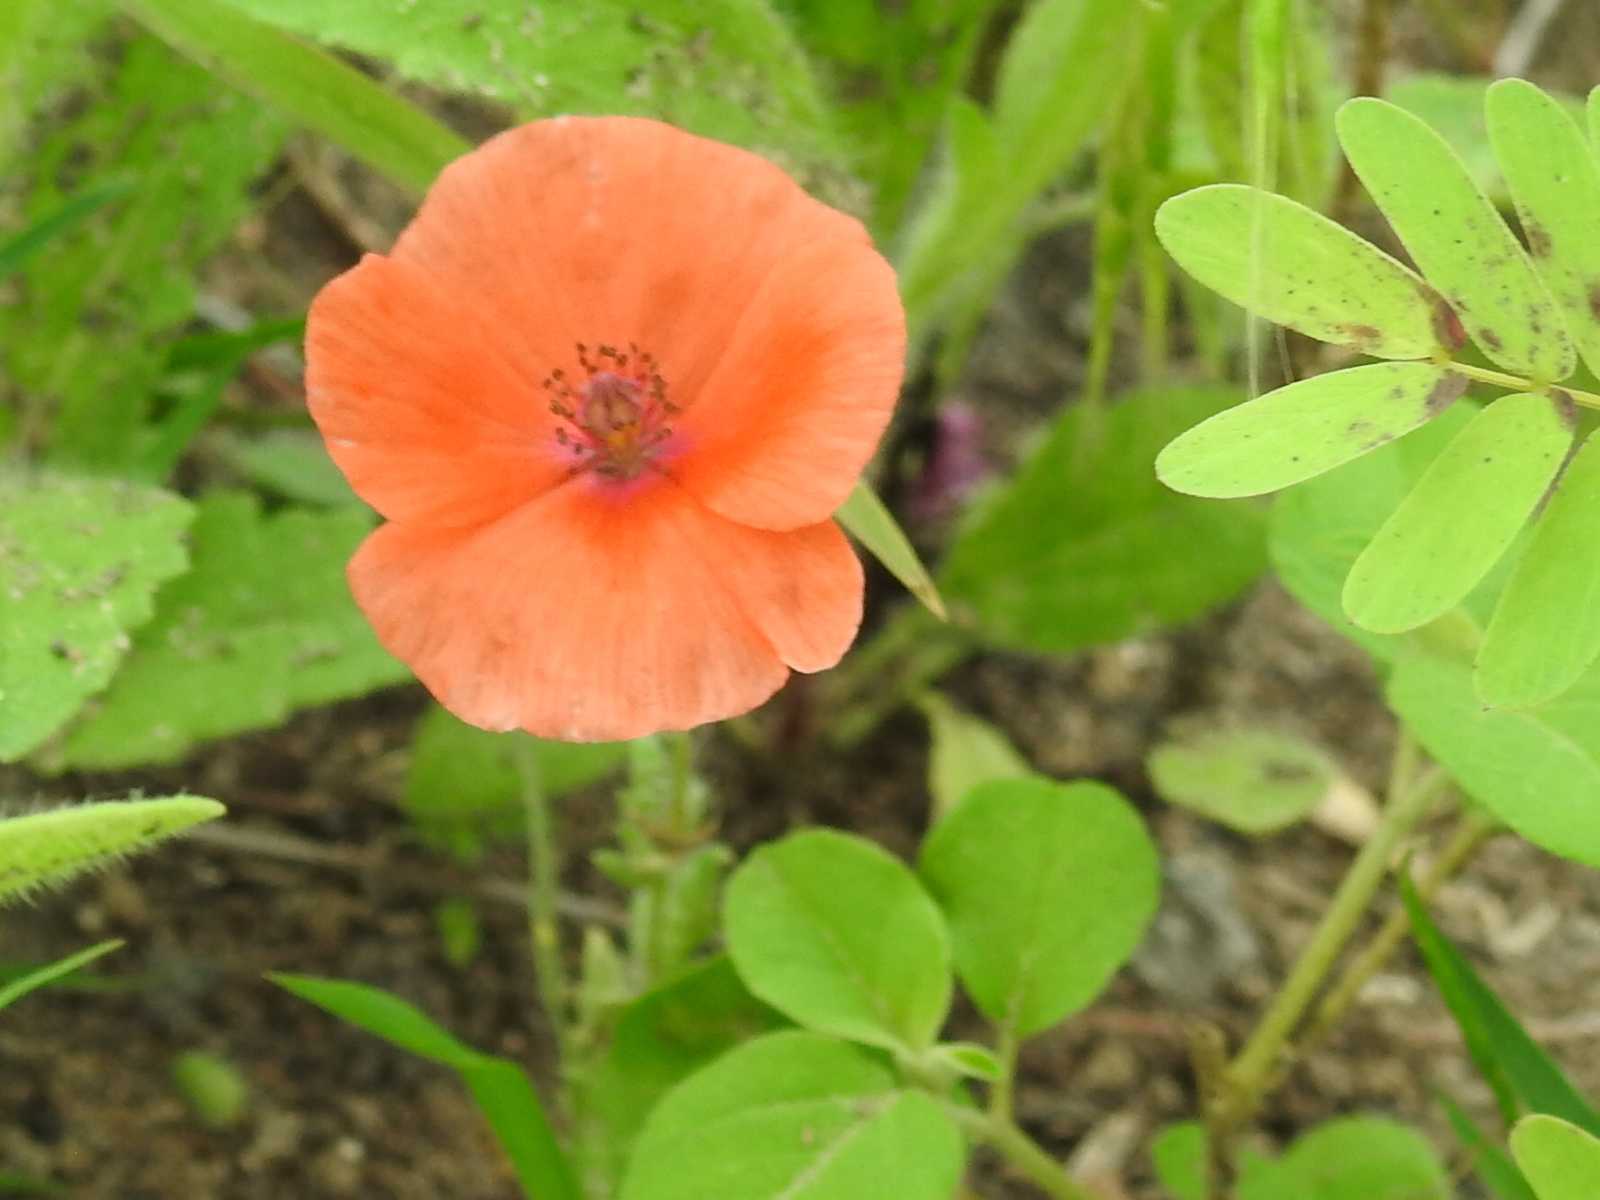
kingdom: Plantae
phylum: Tracheophyta
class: Magnoliopsida
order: Ranunculales
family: Papaveraceae
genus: Papaver
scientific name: Papaver rhoeas
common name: Corn poppy
